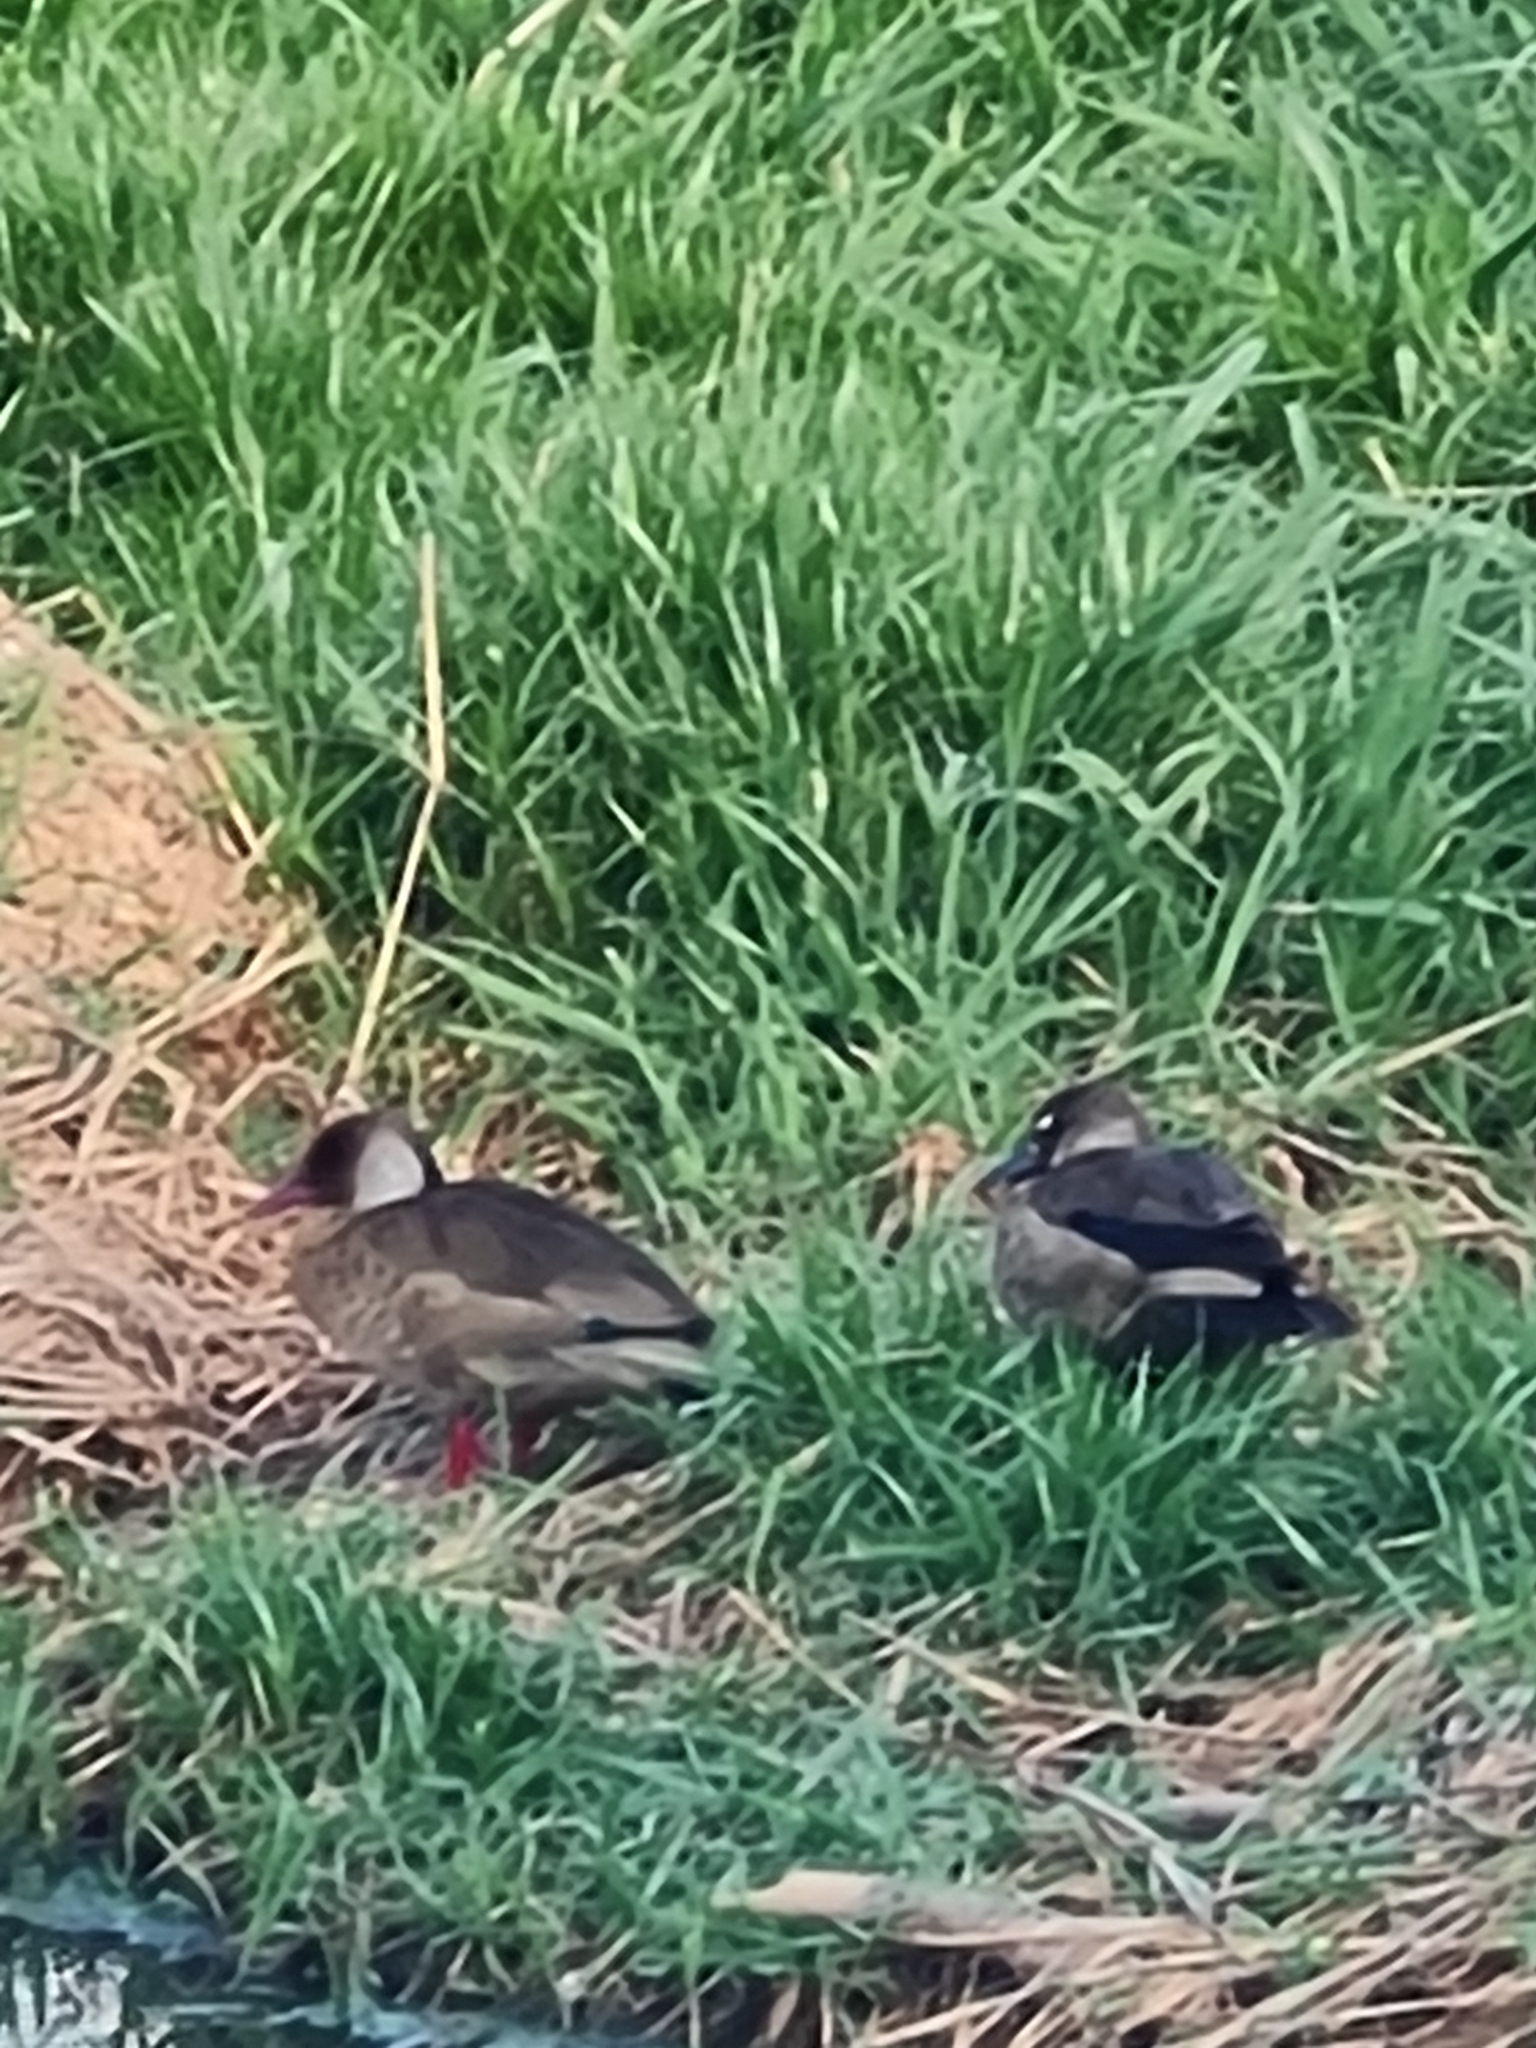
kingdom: Animalia
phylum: Chordata
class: Aves
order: Anseriformes
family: Anatidae
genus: Amazonetta
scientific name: Amazonetta brasiliensis
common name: Brazilian teal
